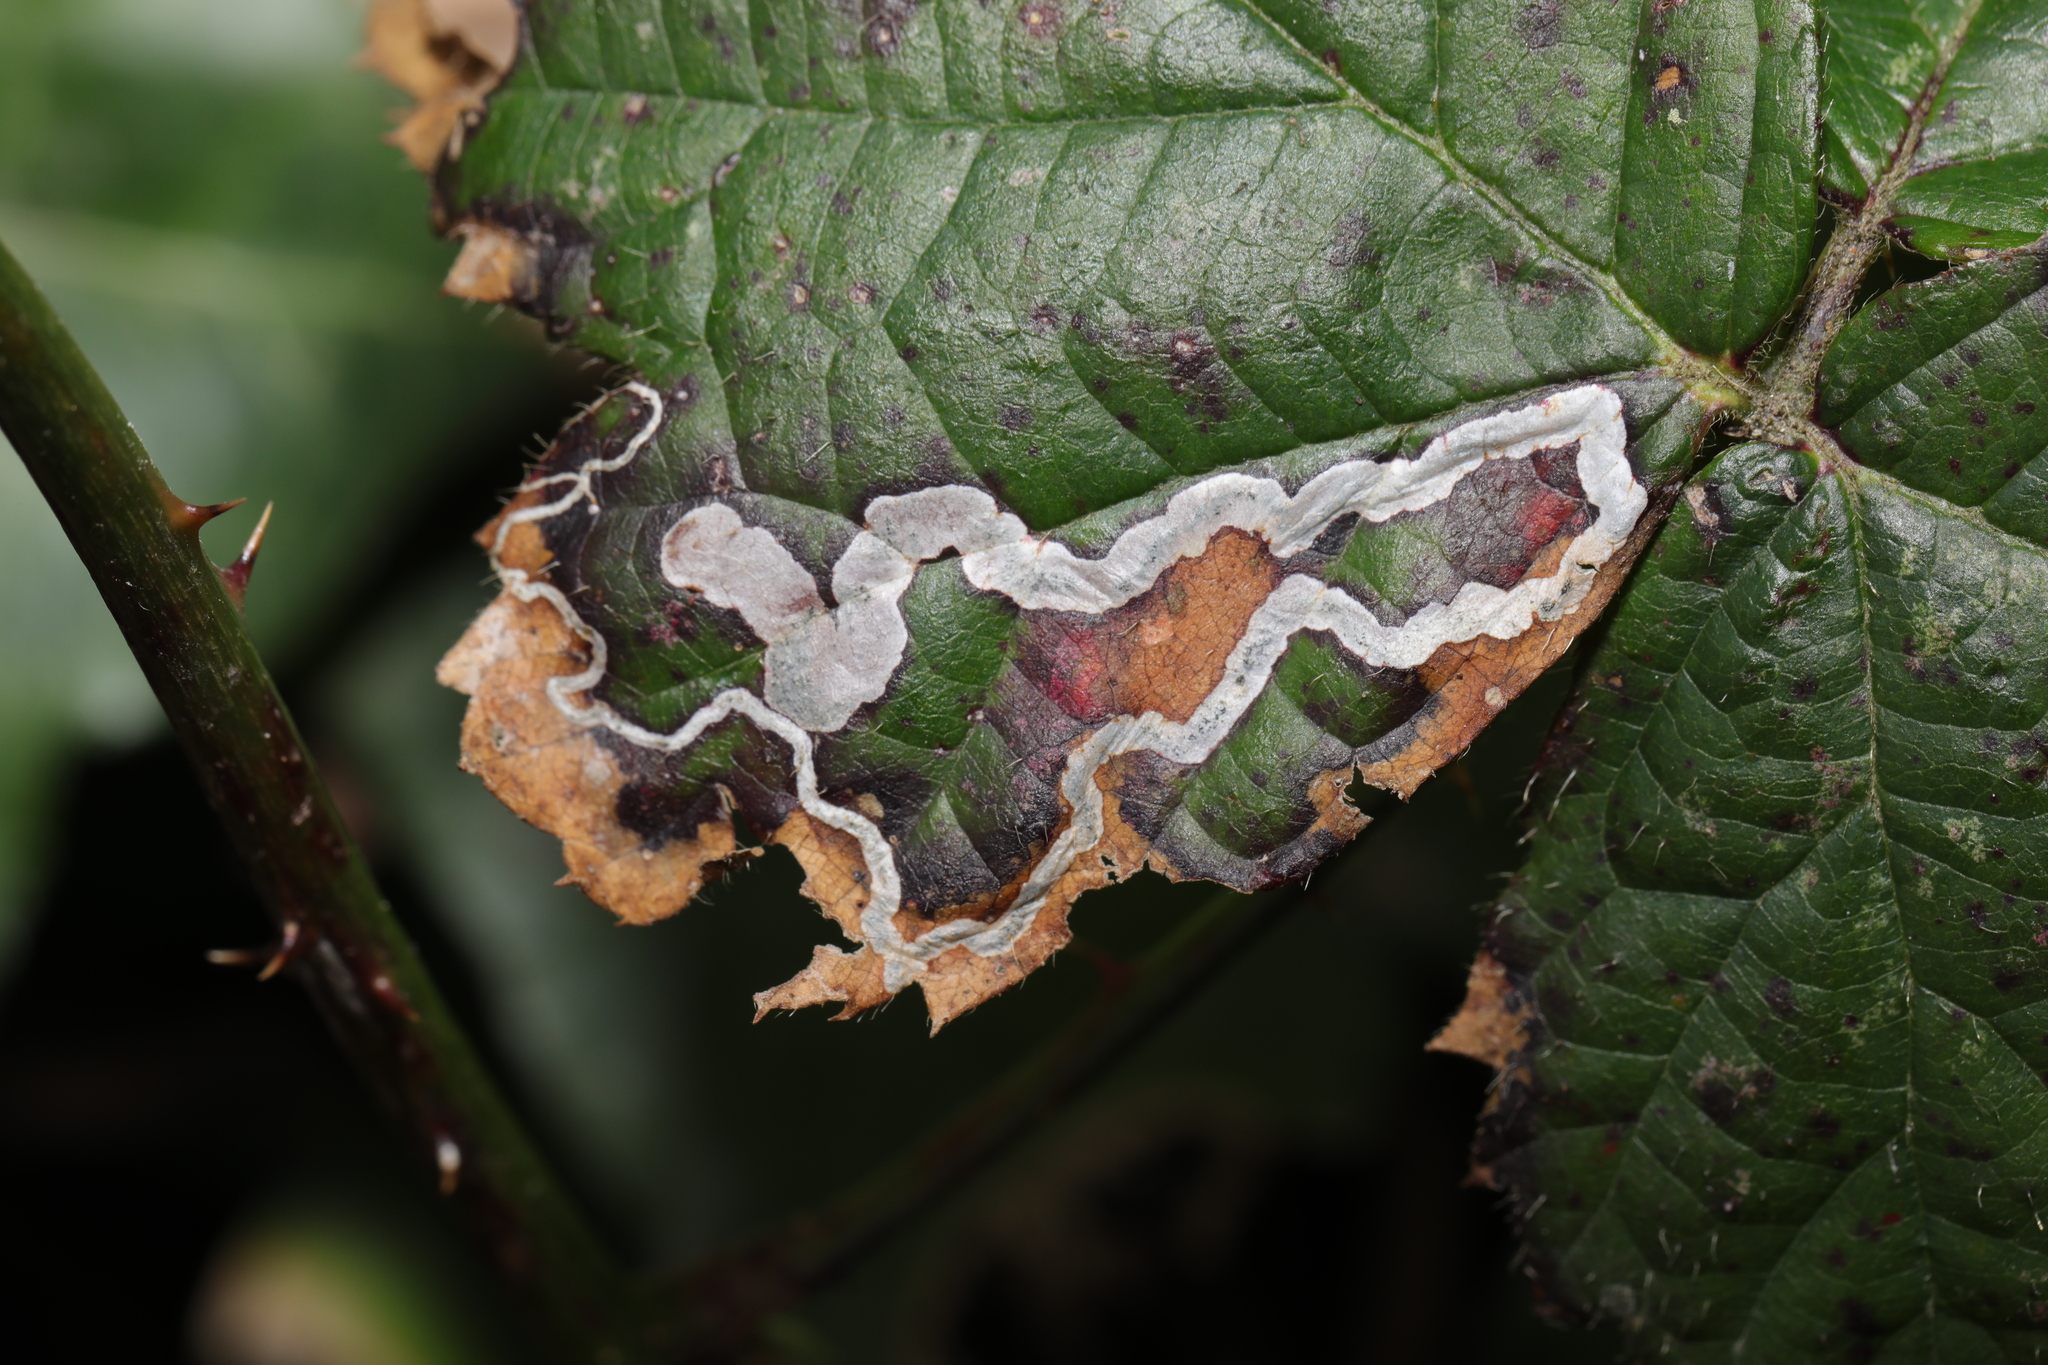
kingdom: Animalia
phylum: Arthropoda
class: Insecta
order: Lepidoptera
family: Nepticulidae
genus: Stigmella
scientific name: Stigmella aurella
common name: Golden pigmy
